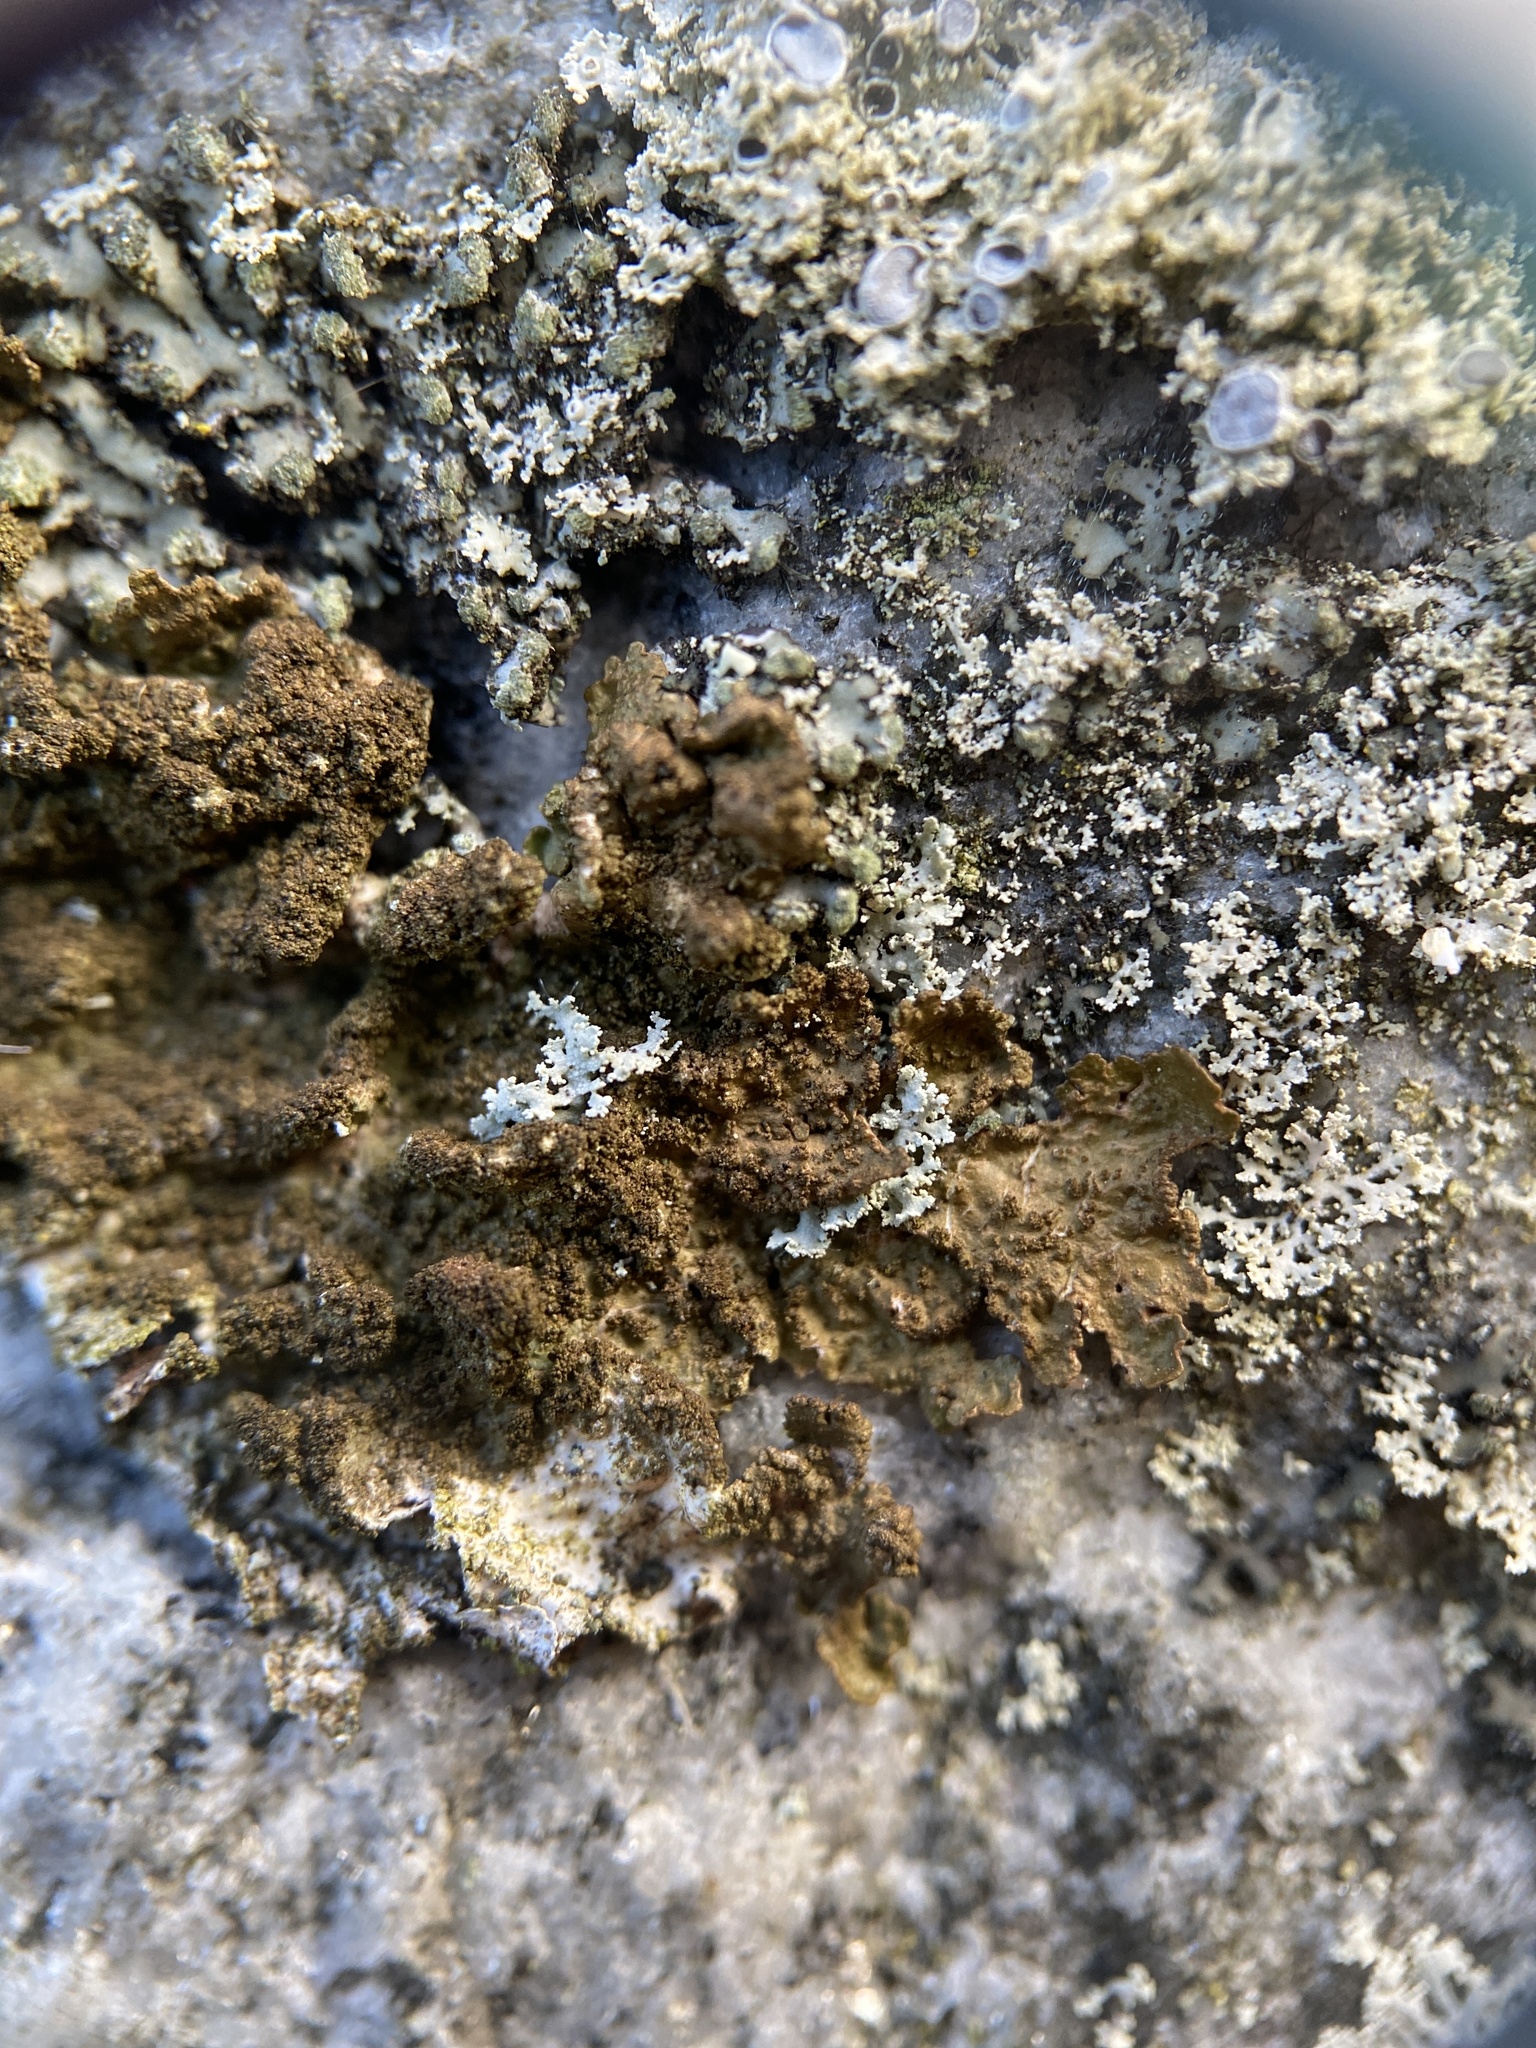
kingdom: Fungi
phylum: Ascomycota
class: Lecanoromycetes
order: Lecanorales
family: Parmeliaceae
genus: Melanelixia
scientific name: Melanelixia subaurifera
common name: Abraded camouflage lichen
